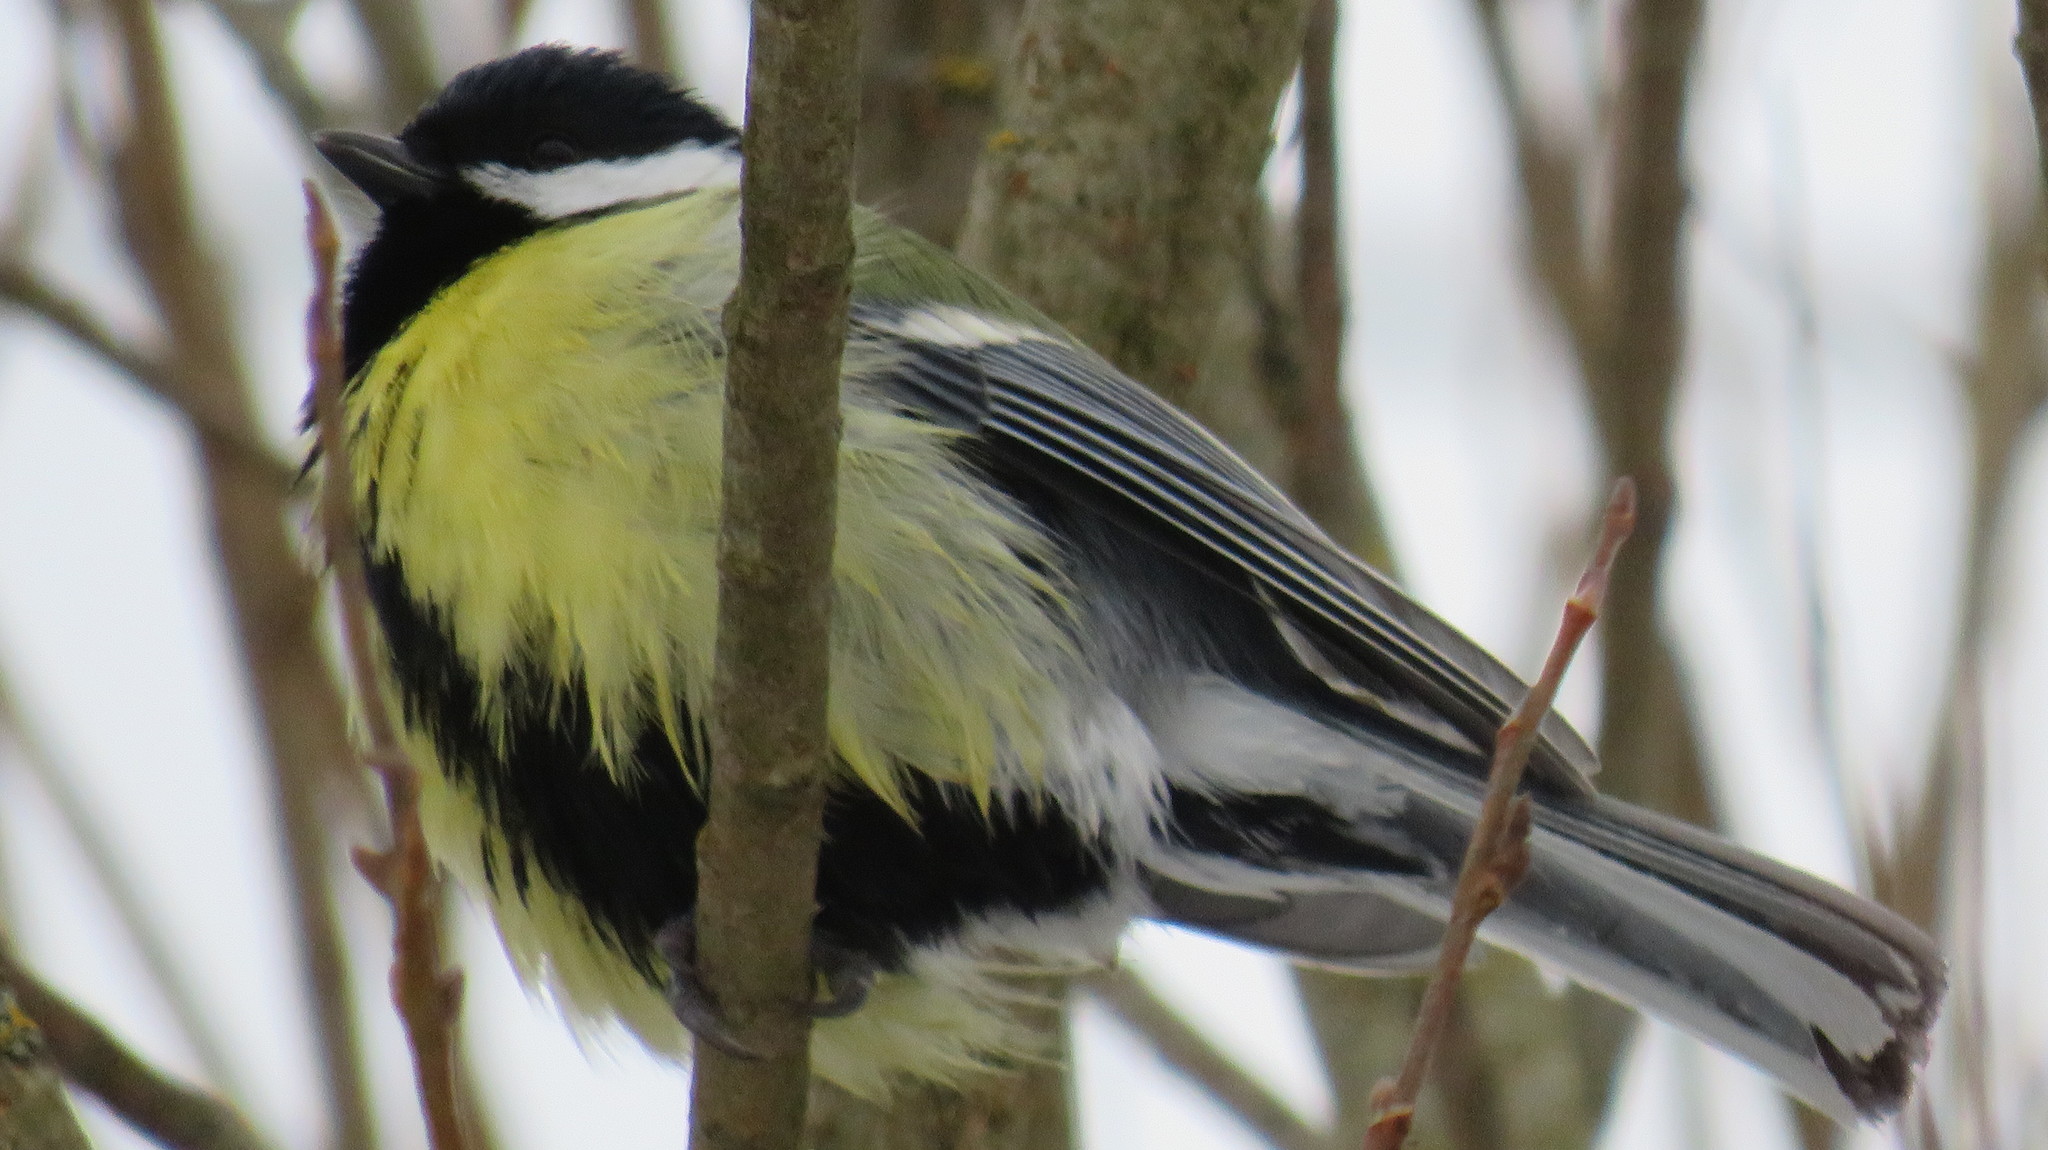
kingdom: Animalia
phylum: Chordata
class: Aves
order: Passeriformes
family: Paridae
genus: Parus
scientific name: Parus major
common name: Great tit
